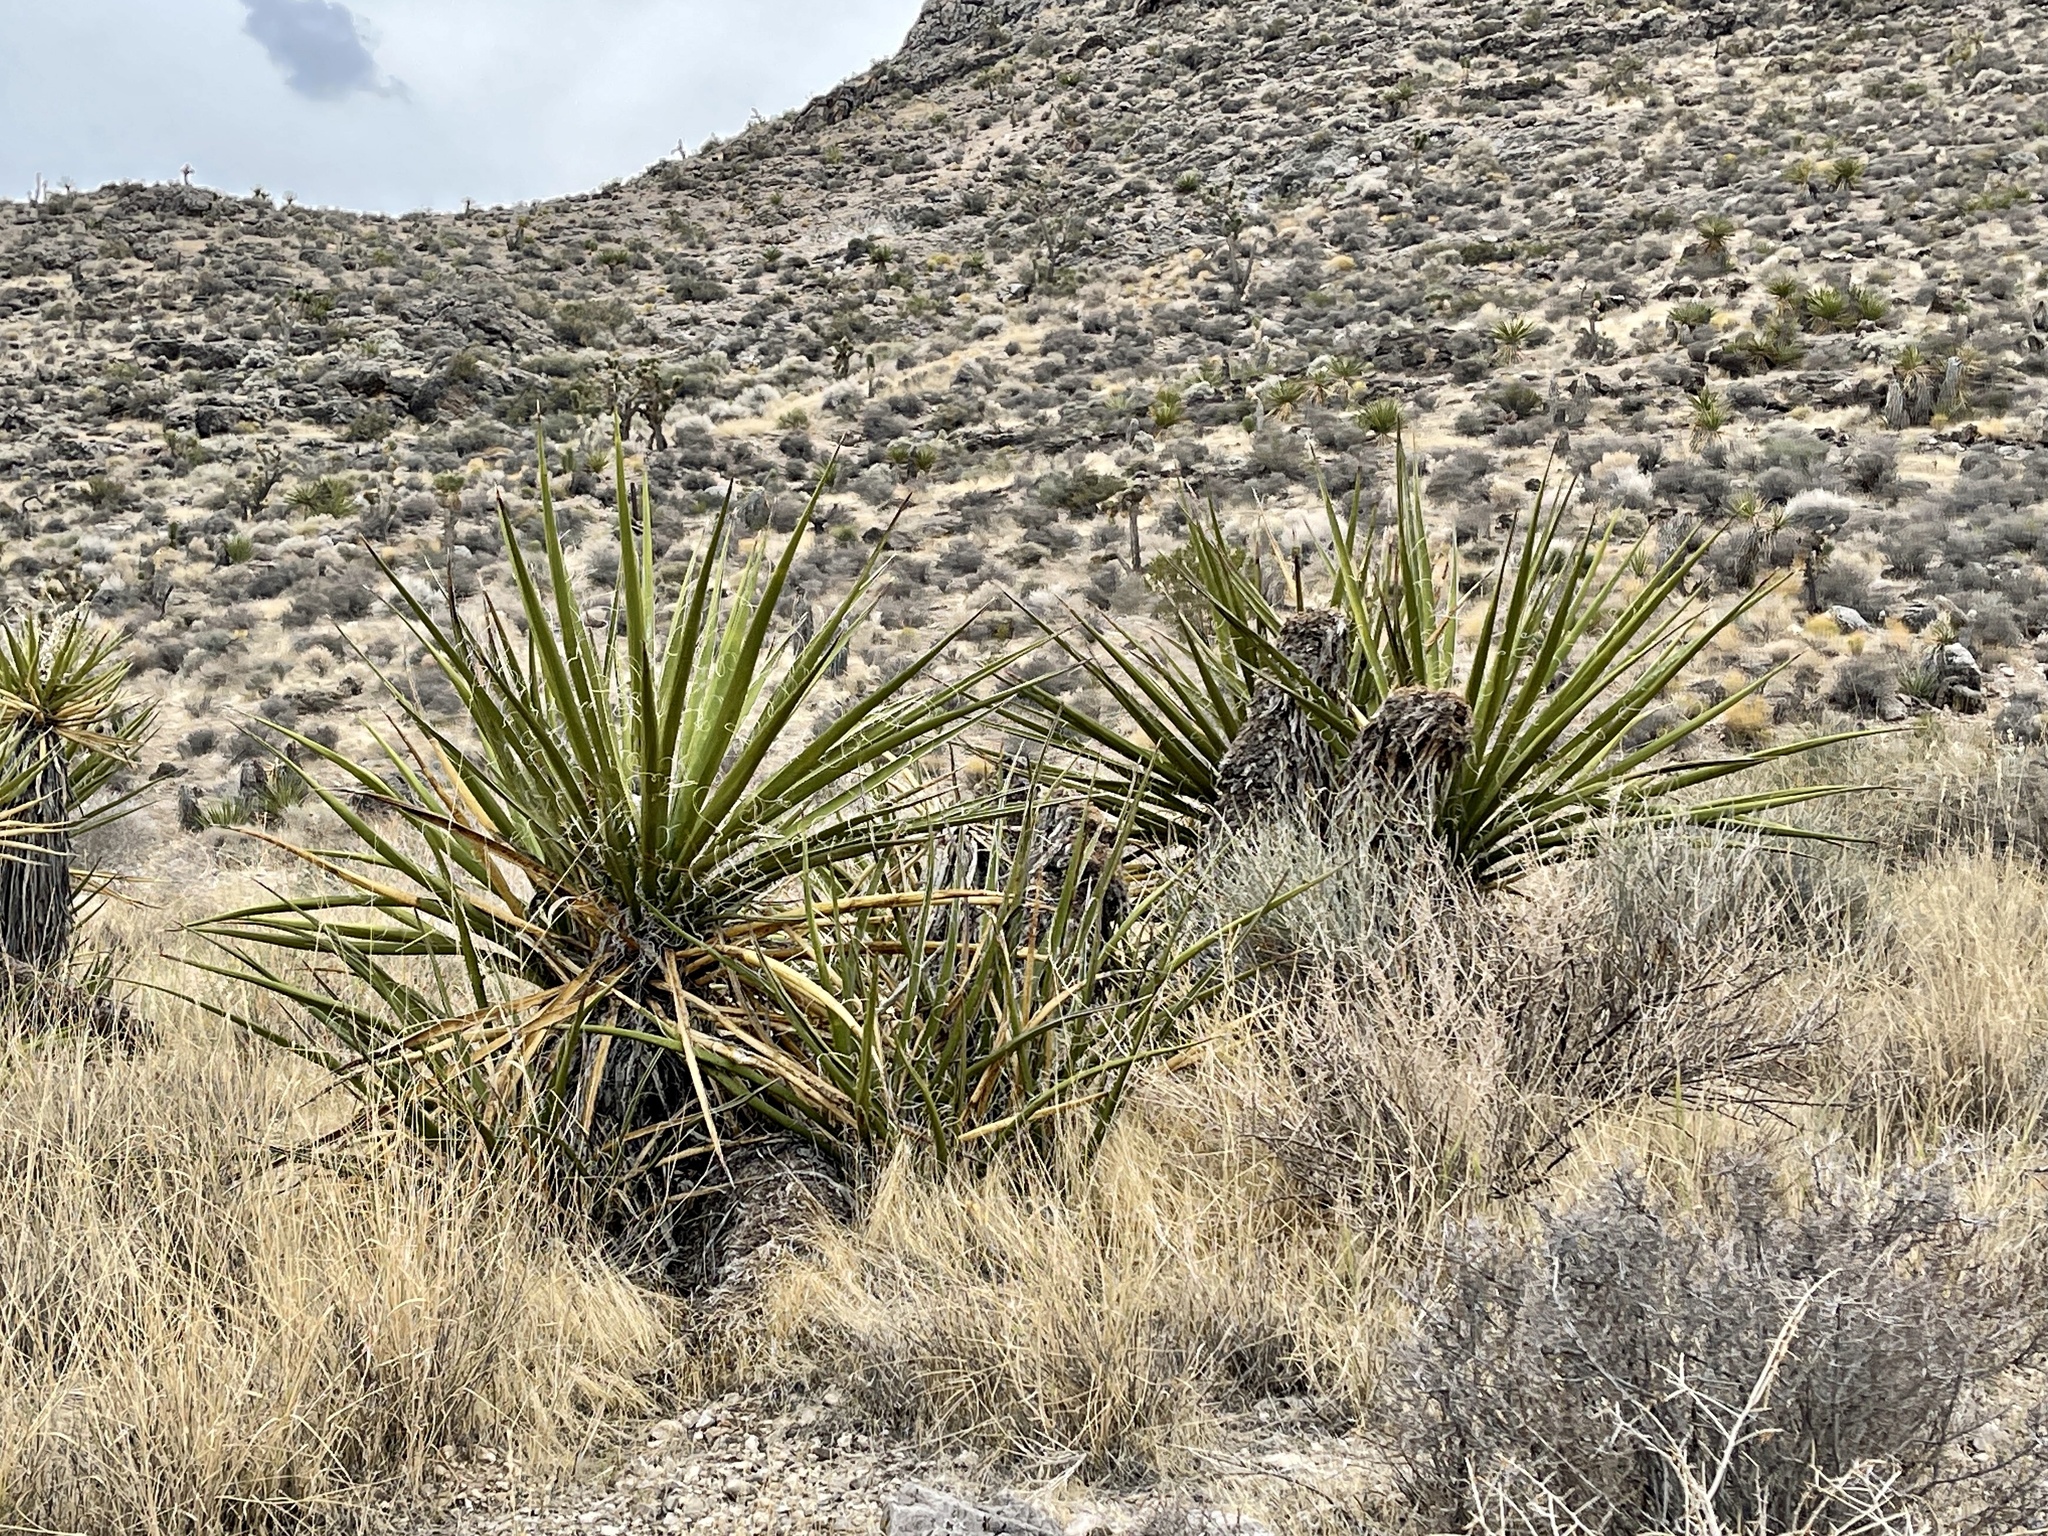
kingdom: Plantae
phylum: Tracheophyta
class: Liliopsida
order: Asparagales
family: Asparagaceae
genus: Yucca
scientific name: Yucca schidigera
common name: Mojave yucca
